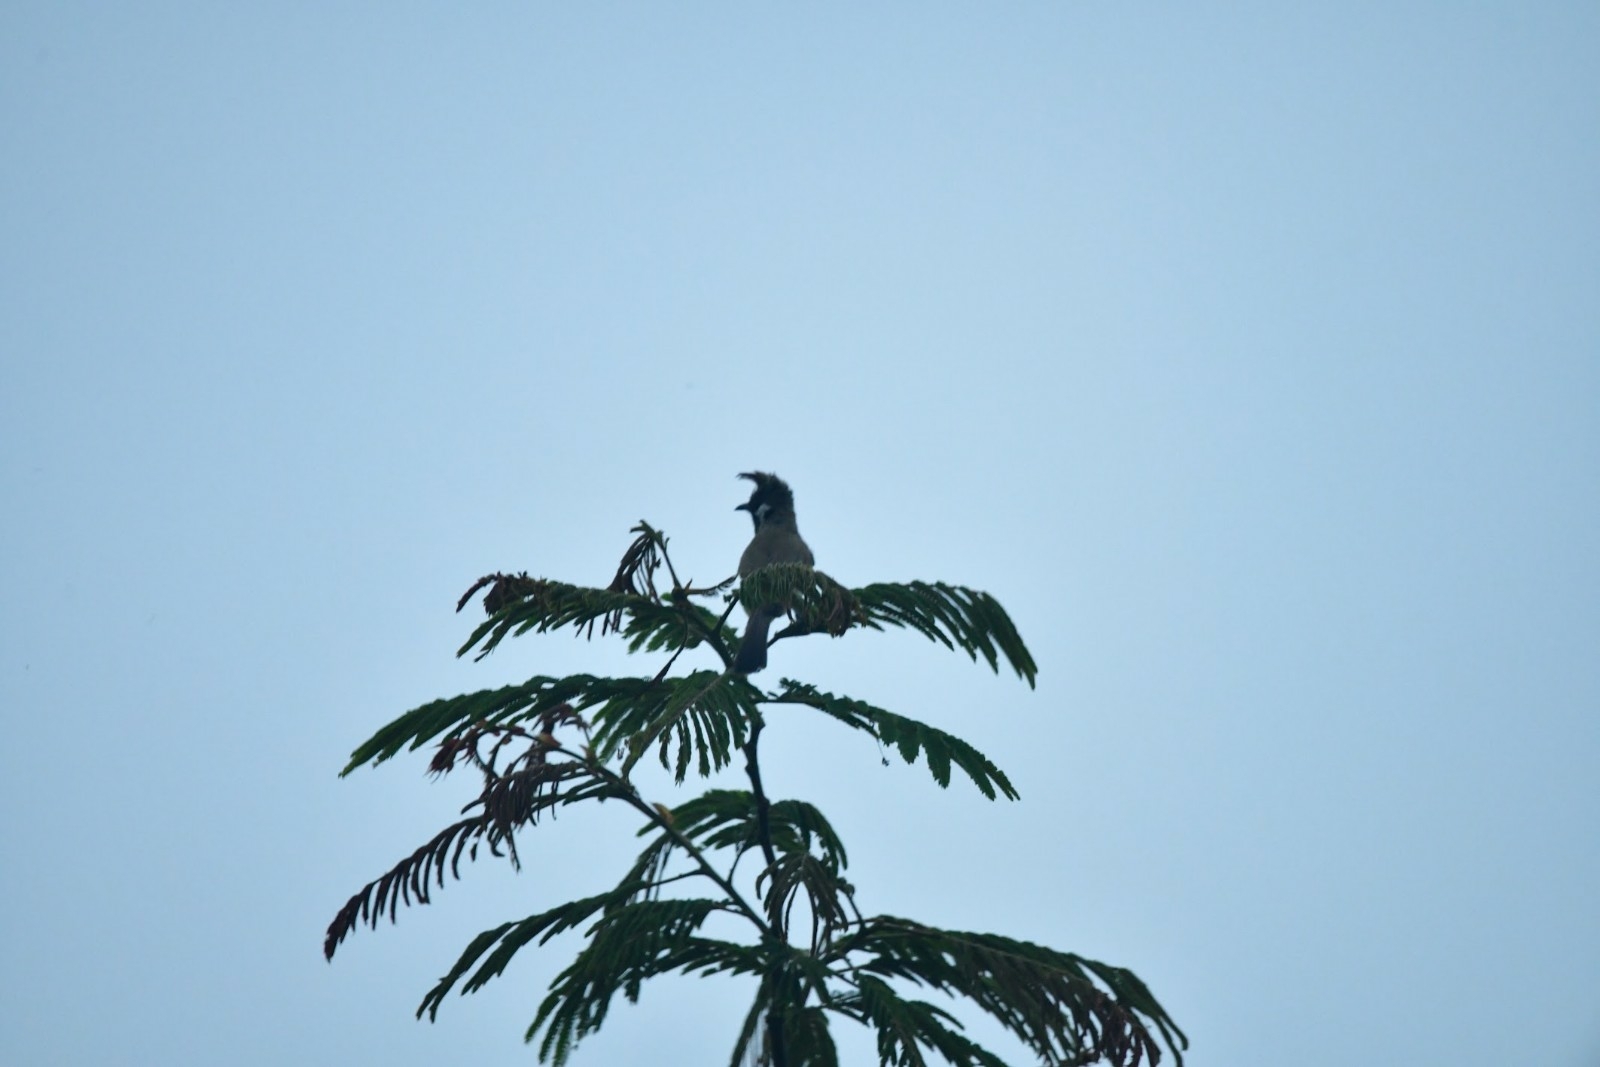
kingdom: Animalia
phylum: Chordata
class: Aves
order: Passeriformes
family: Pycnonotidae
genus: Pycnonotus
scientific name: Pycnonotus leucogenys
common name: Himalayan bulbul
